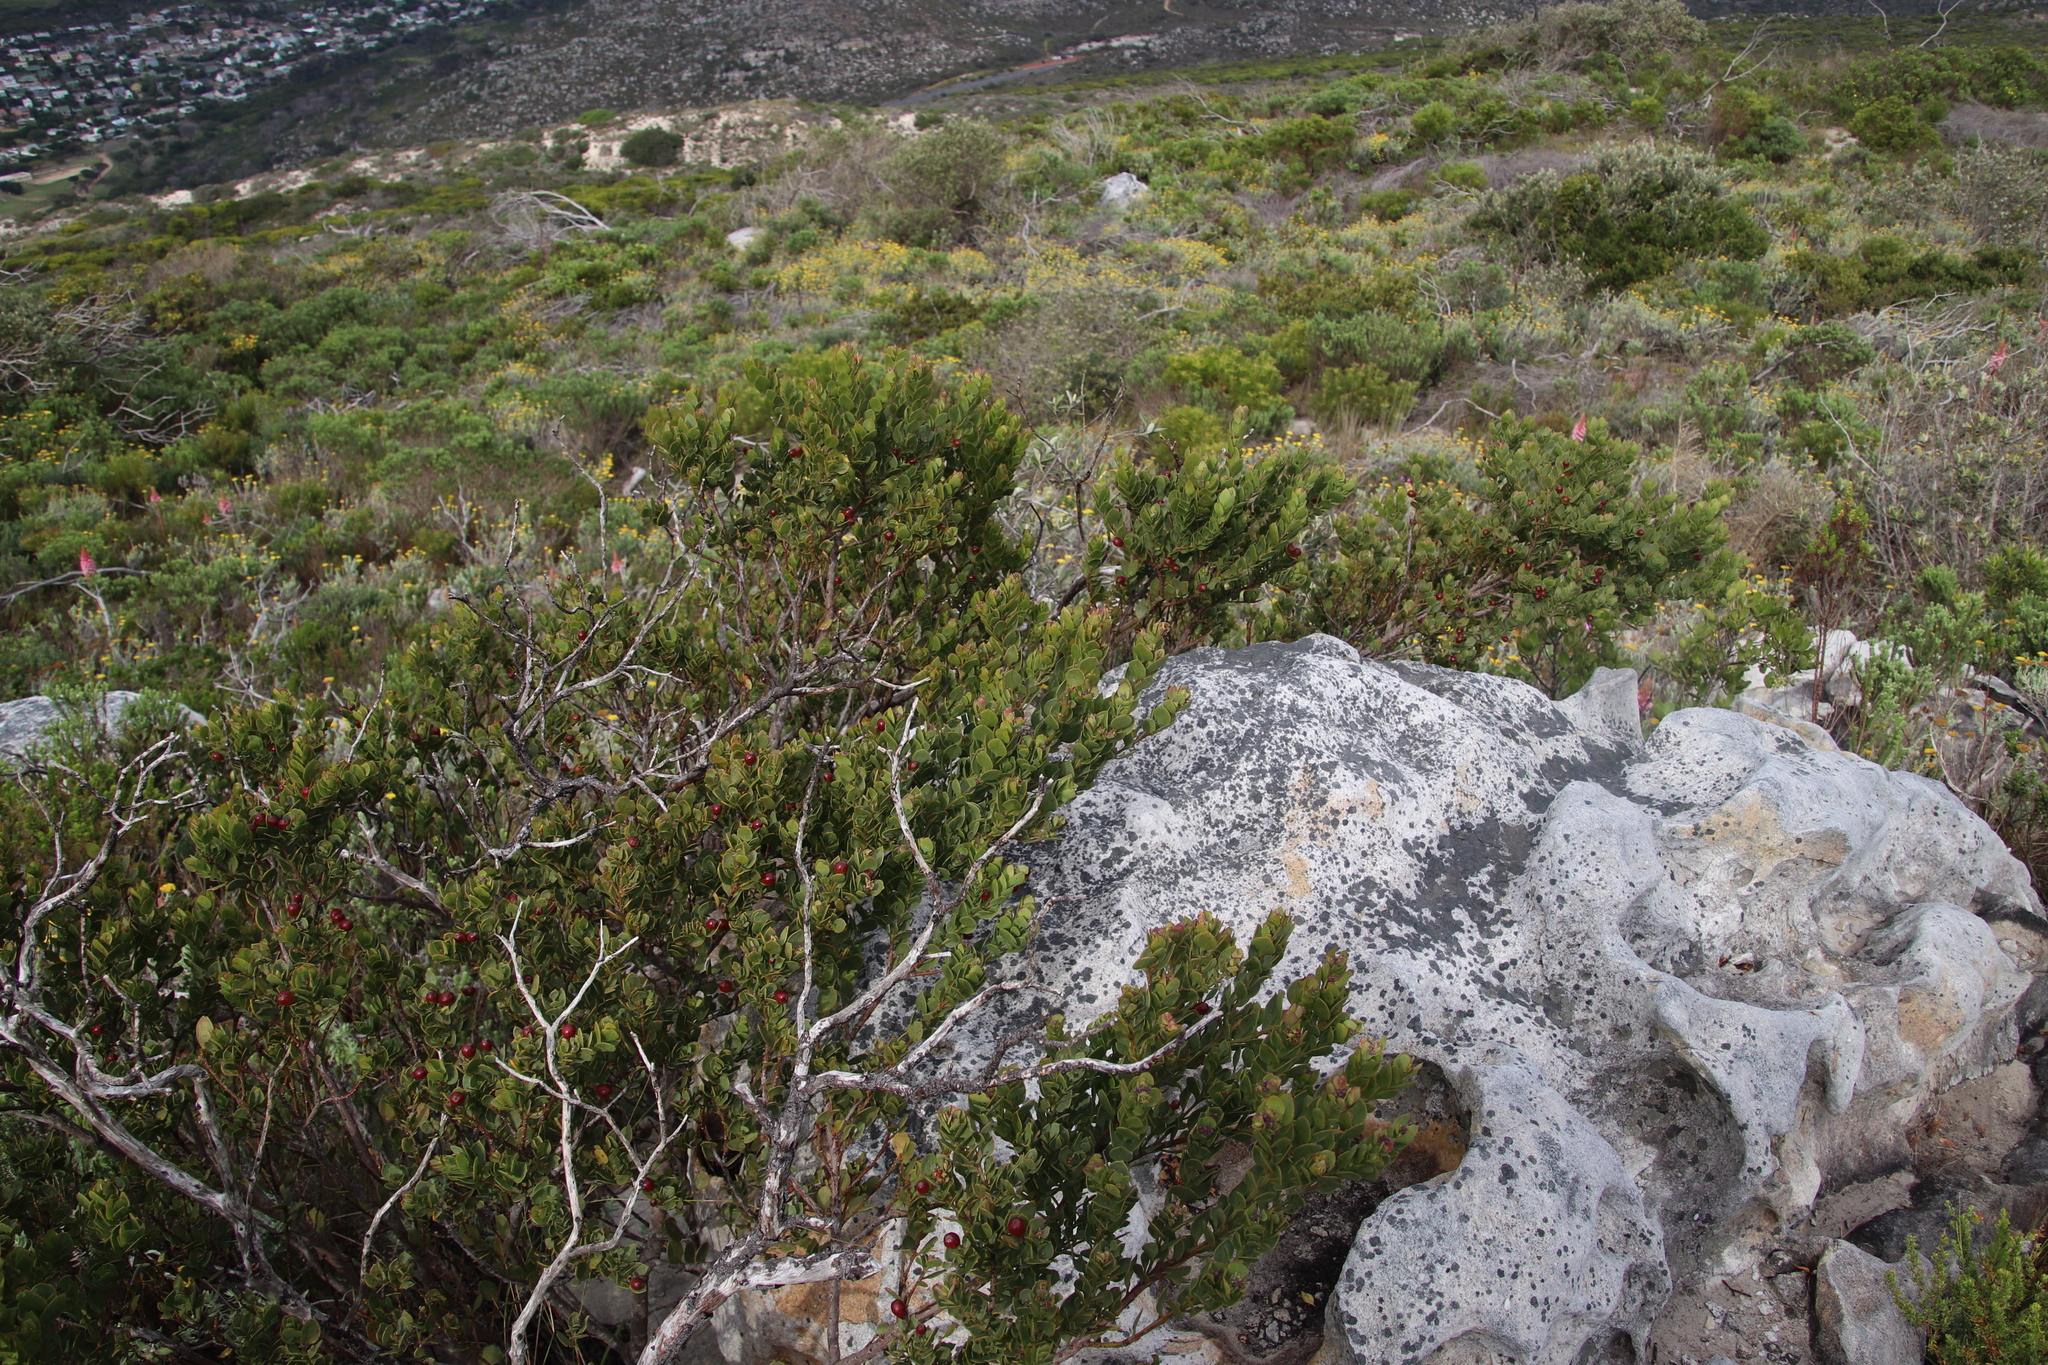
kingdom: Plantae
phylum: Tracheophyta
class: Magnoliopsida
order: Santalales
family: Santalaceae
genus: Osyris
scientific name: Osyris compressa
